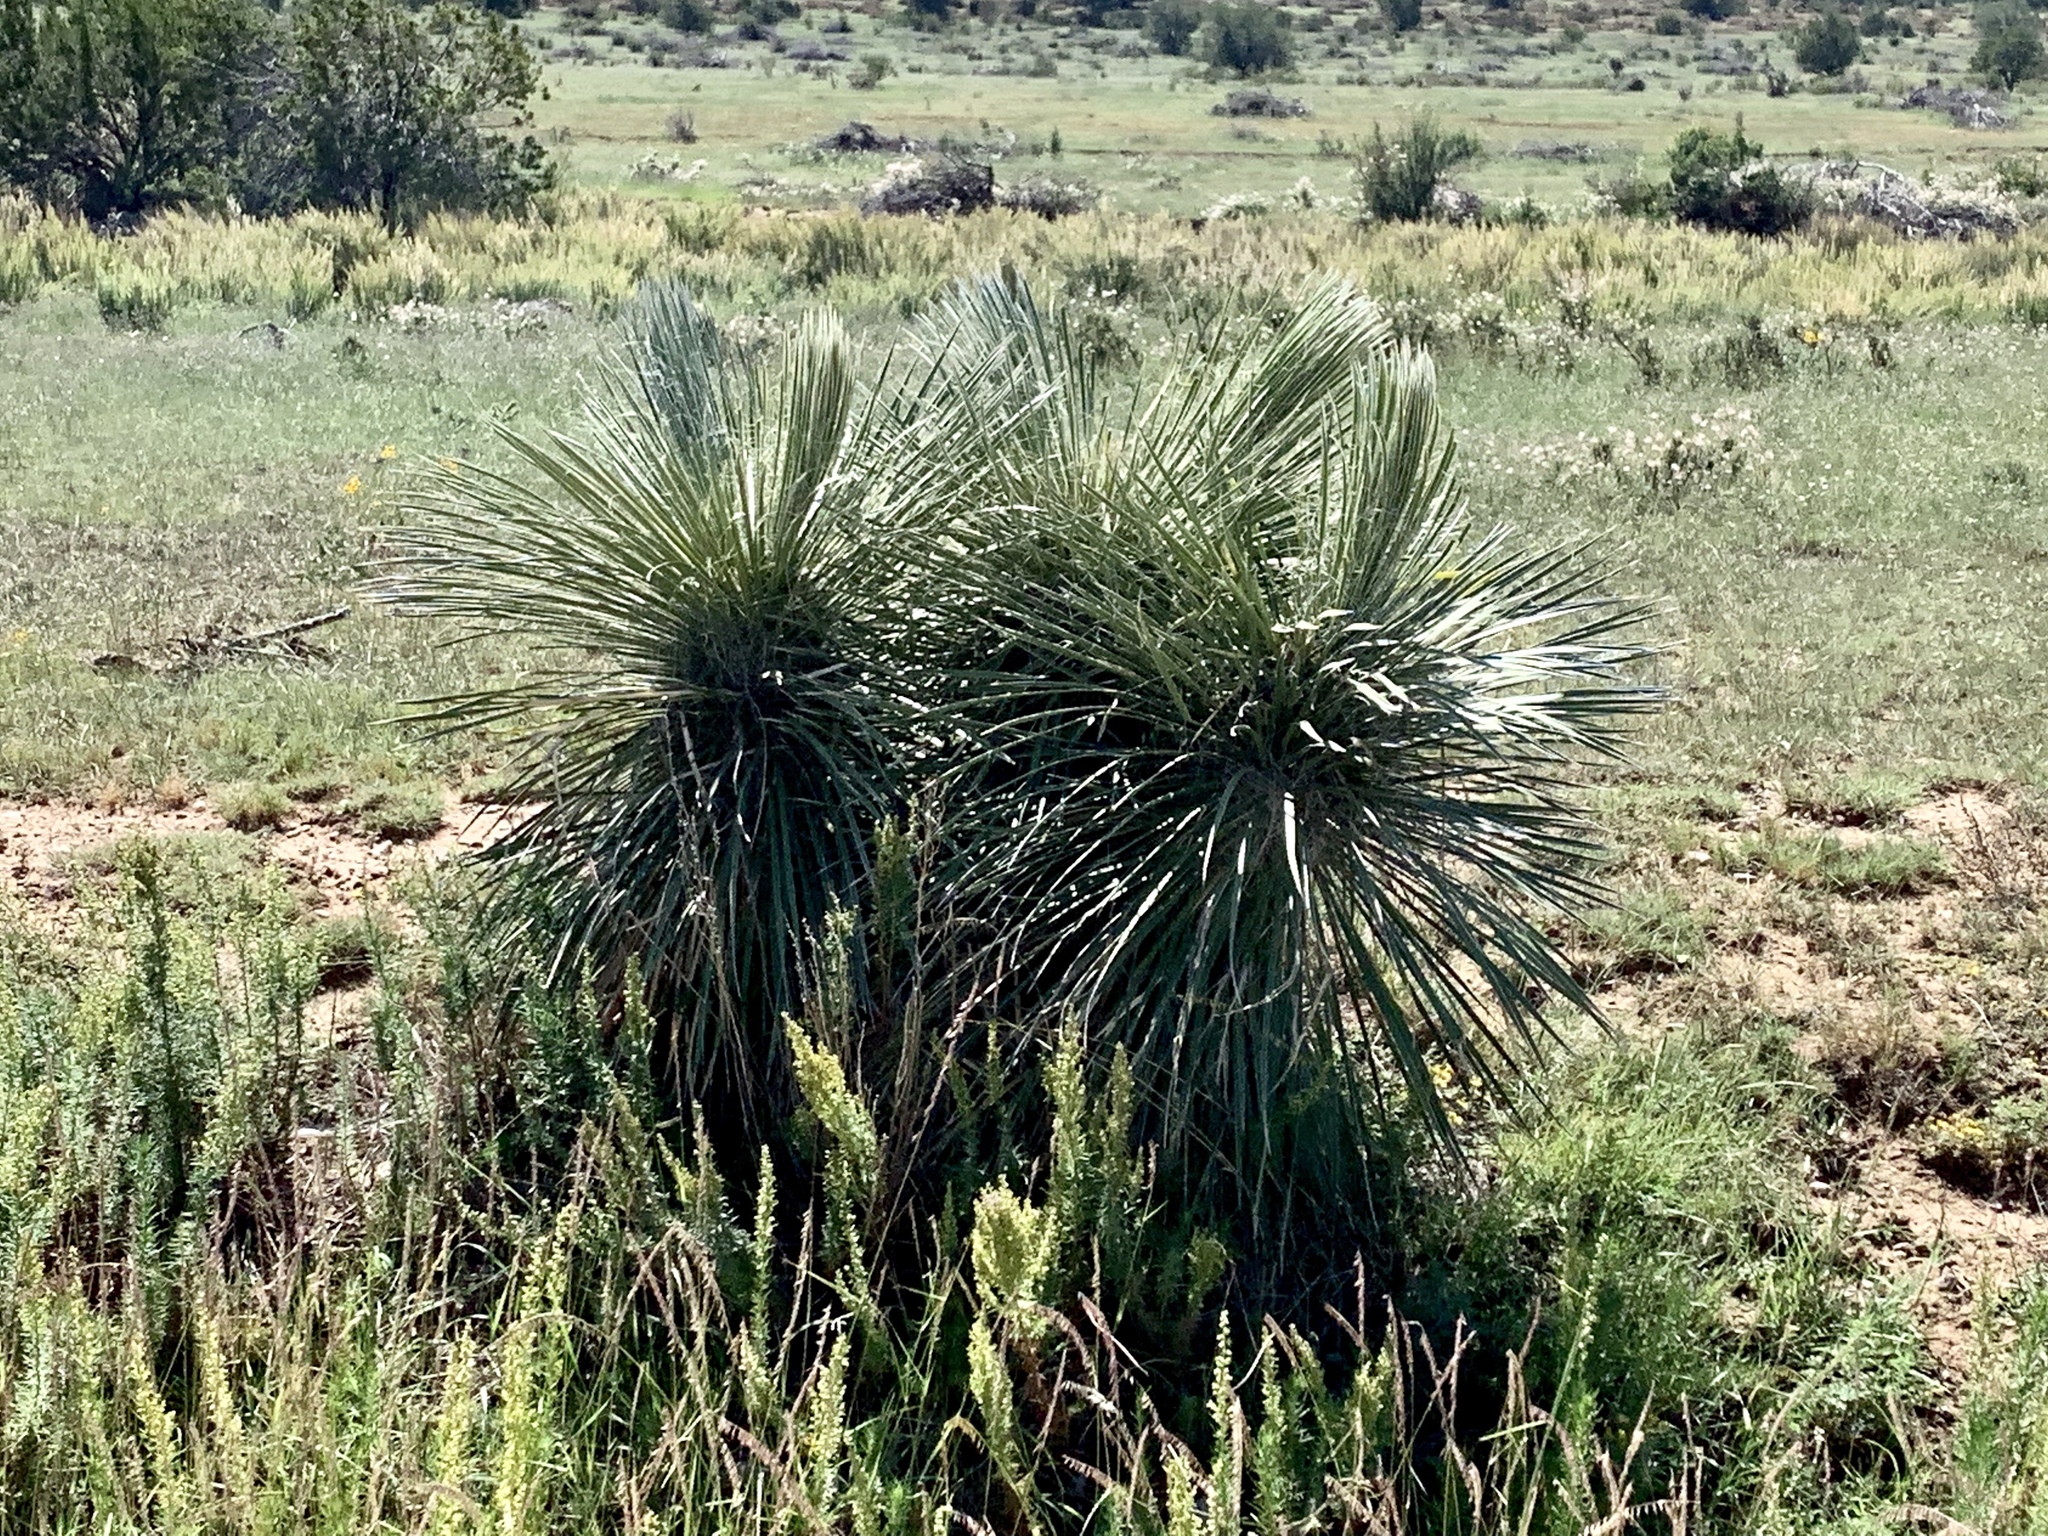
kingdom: Plantae
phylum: Tracheophyta
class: Liliopsida
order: Asparagales
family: Asparagaceae
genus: Yucca
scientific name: Yucca elata
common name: Palmella
